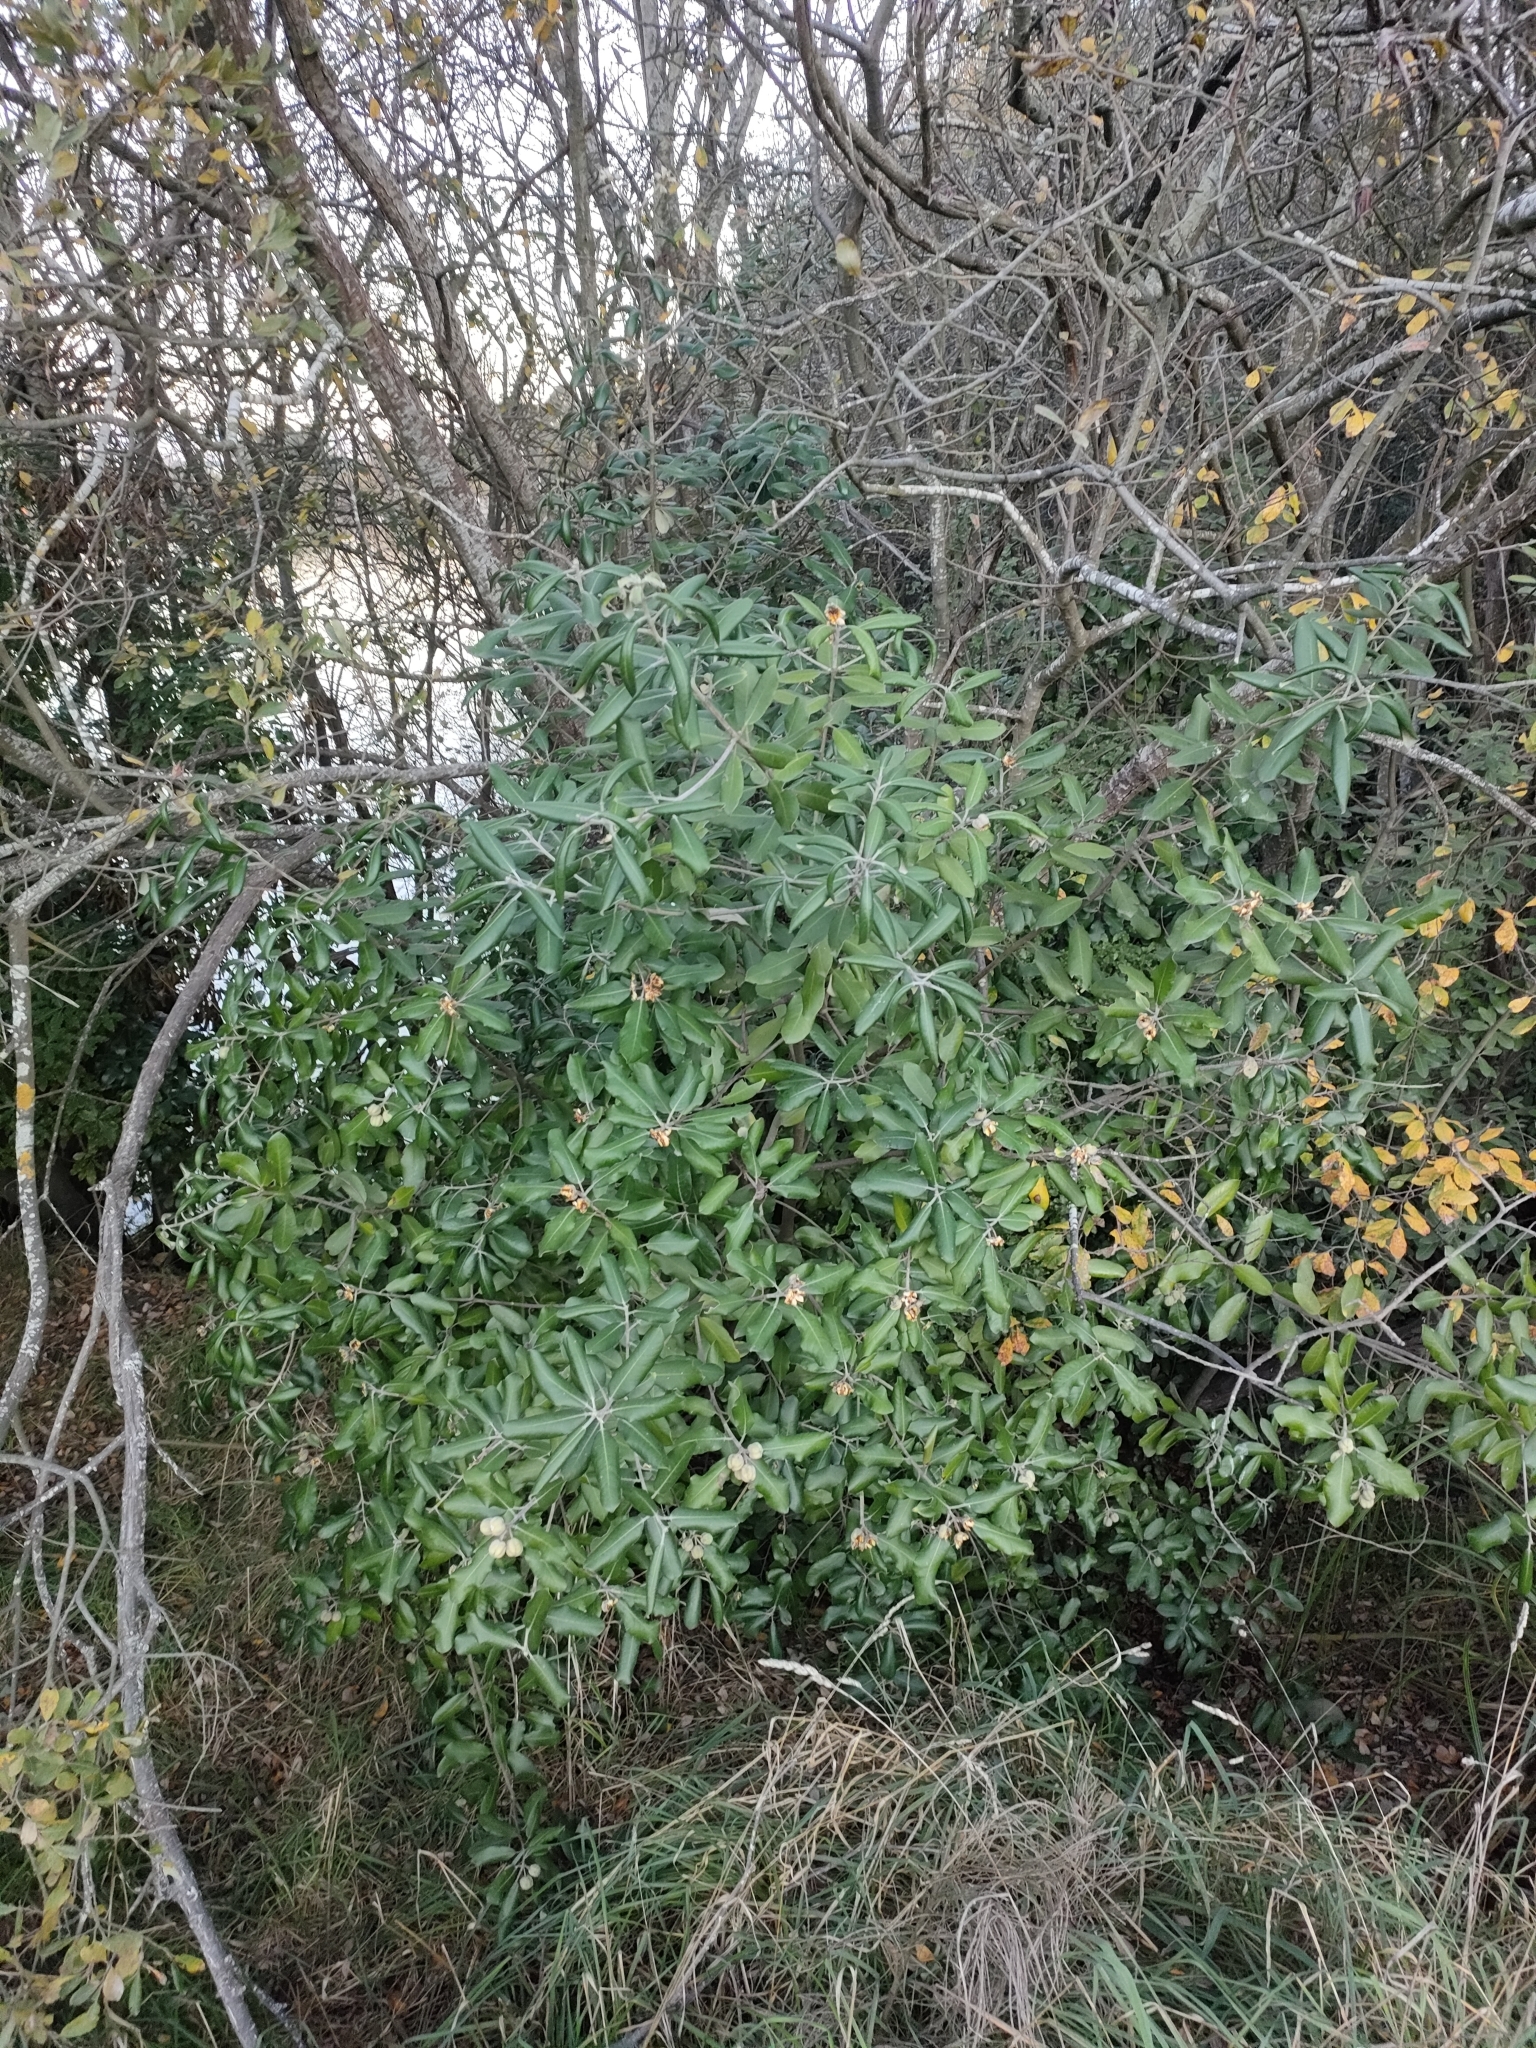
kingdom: Plantae
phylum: Tracheophyta
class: Magnoliopsida
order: Apiales
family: Pittosporaceae
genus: Pittosporum
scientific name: Pittosporum ralphii
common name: Ralph's desertwillow
